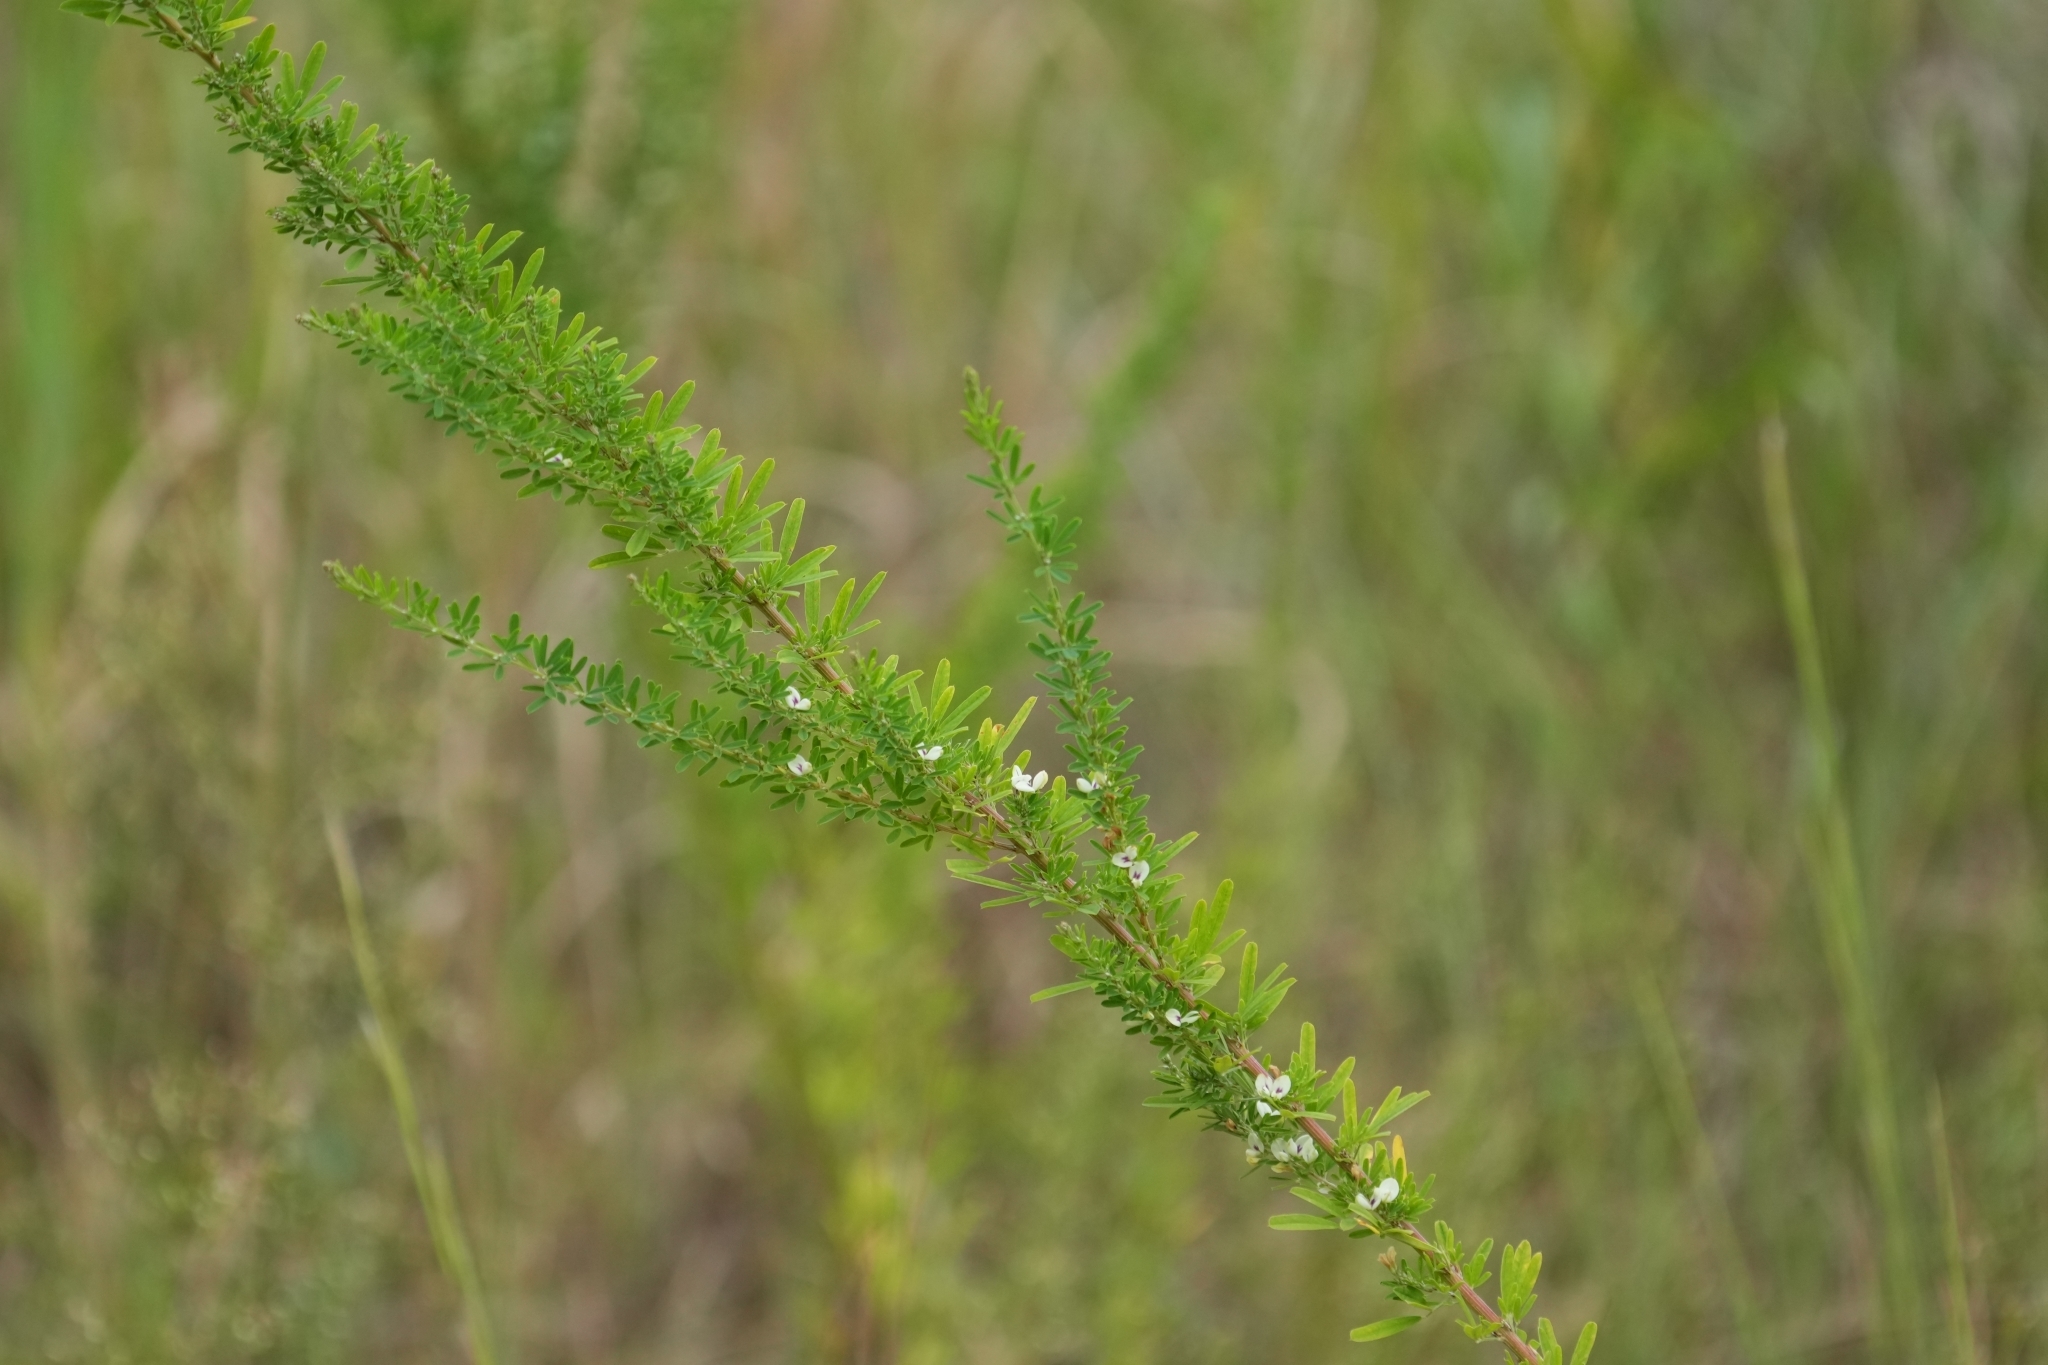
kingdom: Plantae
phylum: Tracheophyta
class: Magnoliopsida
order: Fabales
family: Fabaceae
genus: Lespedeza
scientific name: Lespedeza cuneata
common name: Chinese bush-clover
